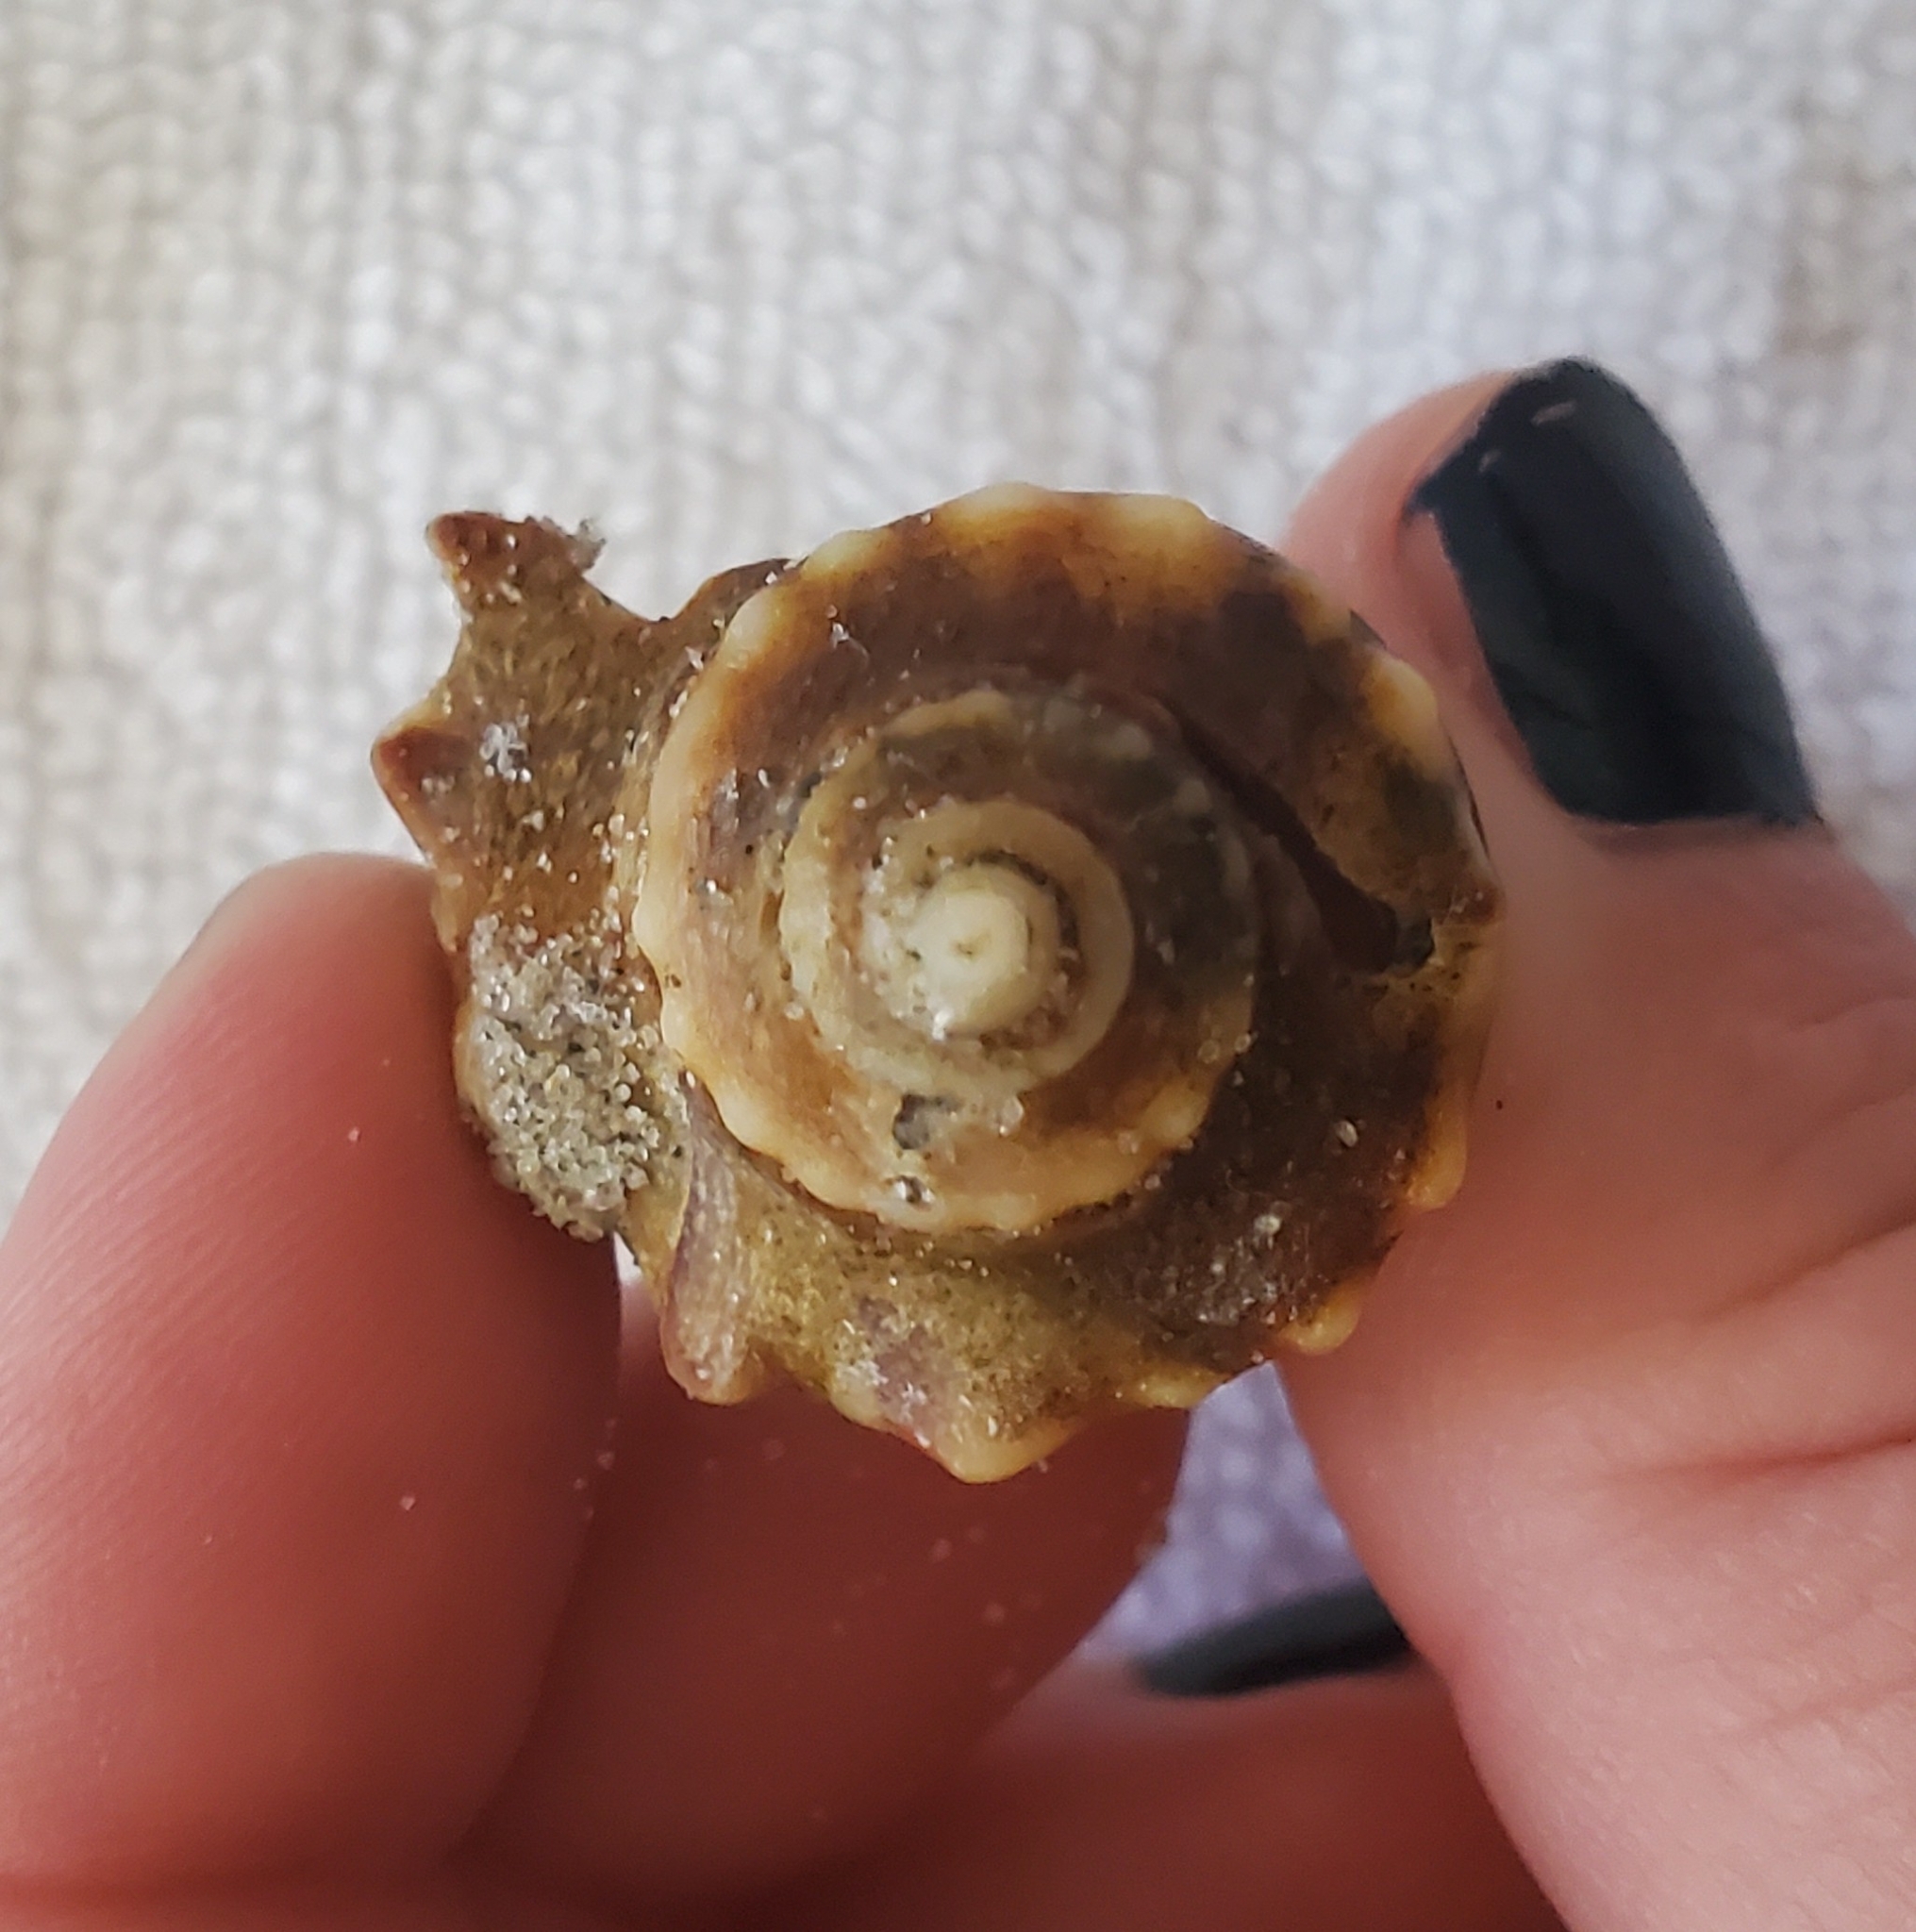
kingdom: Animalia
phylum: Mollusca
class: Gastropoda
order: Neogastropoda
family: Busyconidae
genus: Busycon
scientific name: Busycon carica
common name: Knobbed whelk
